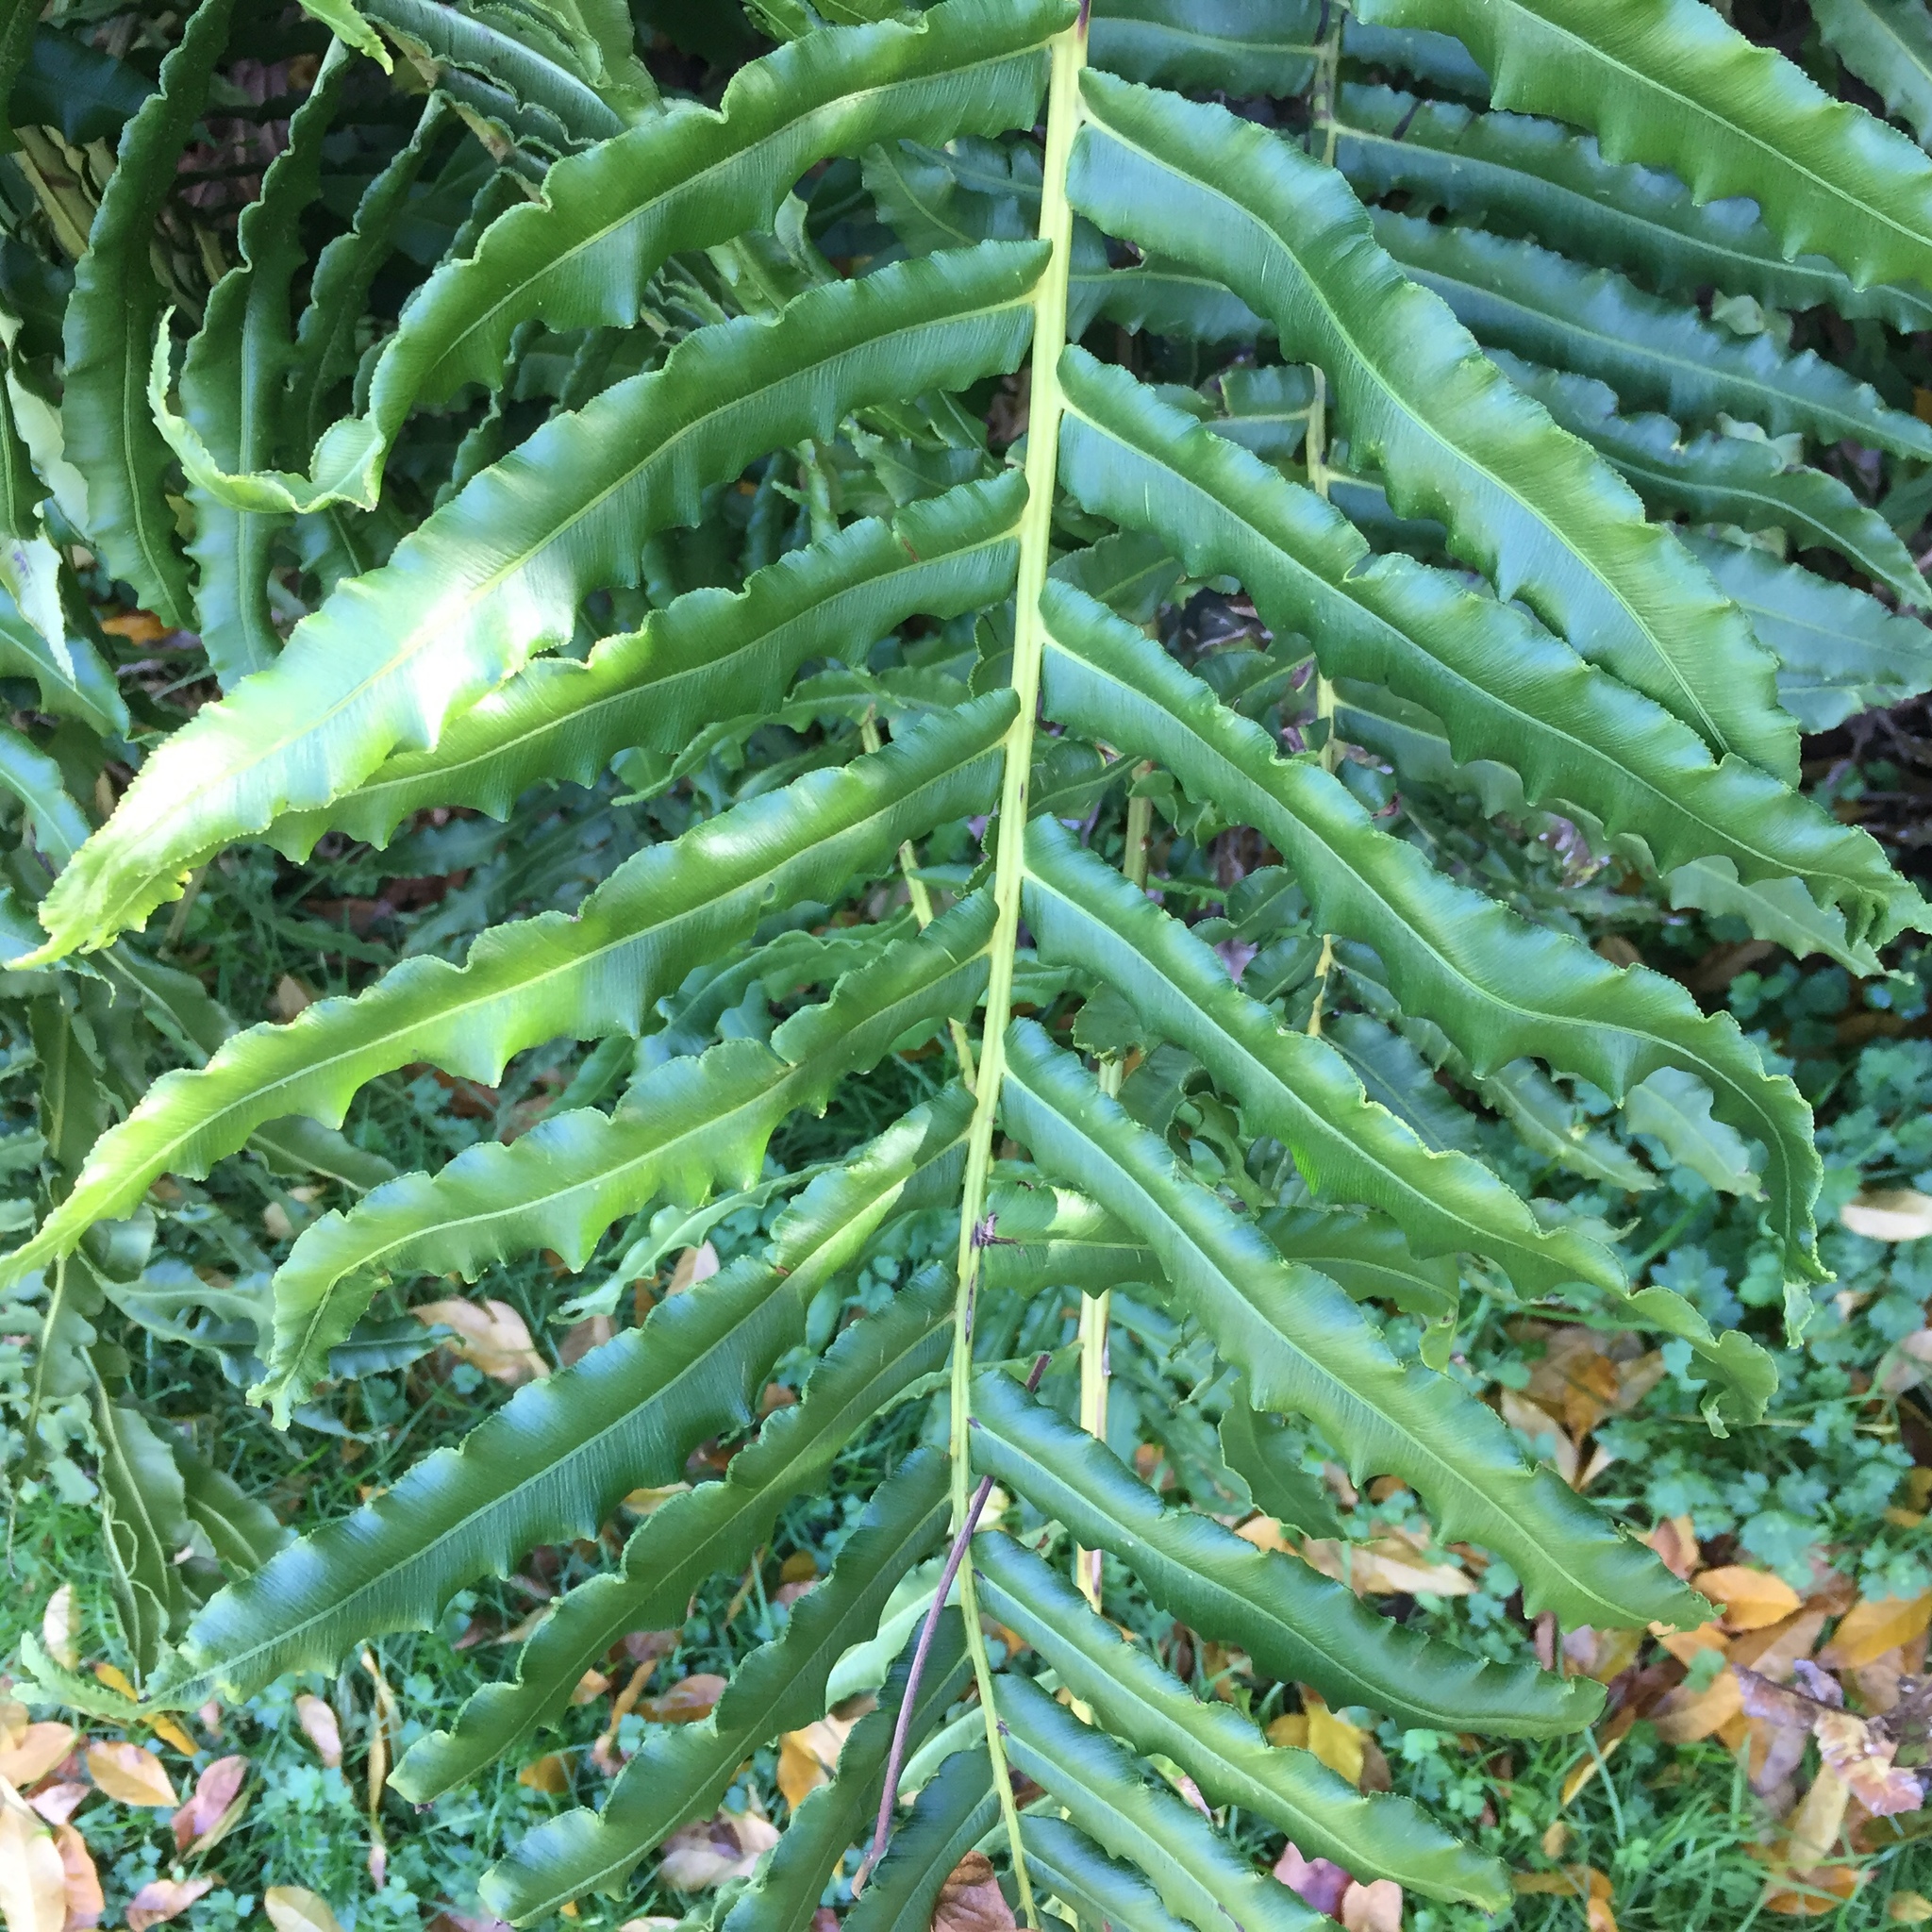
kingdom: Plantae
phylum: Tracheophyta
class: Polypodiopsida
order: Polypodiales
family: Blechnaceae
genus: Parablechnum
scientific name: Parablechnum chilense
